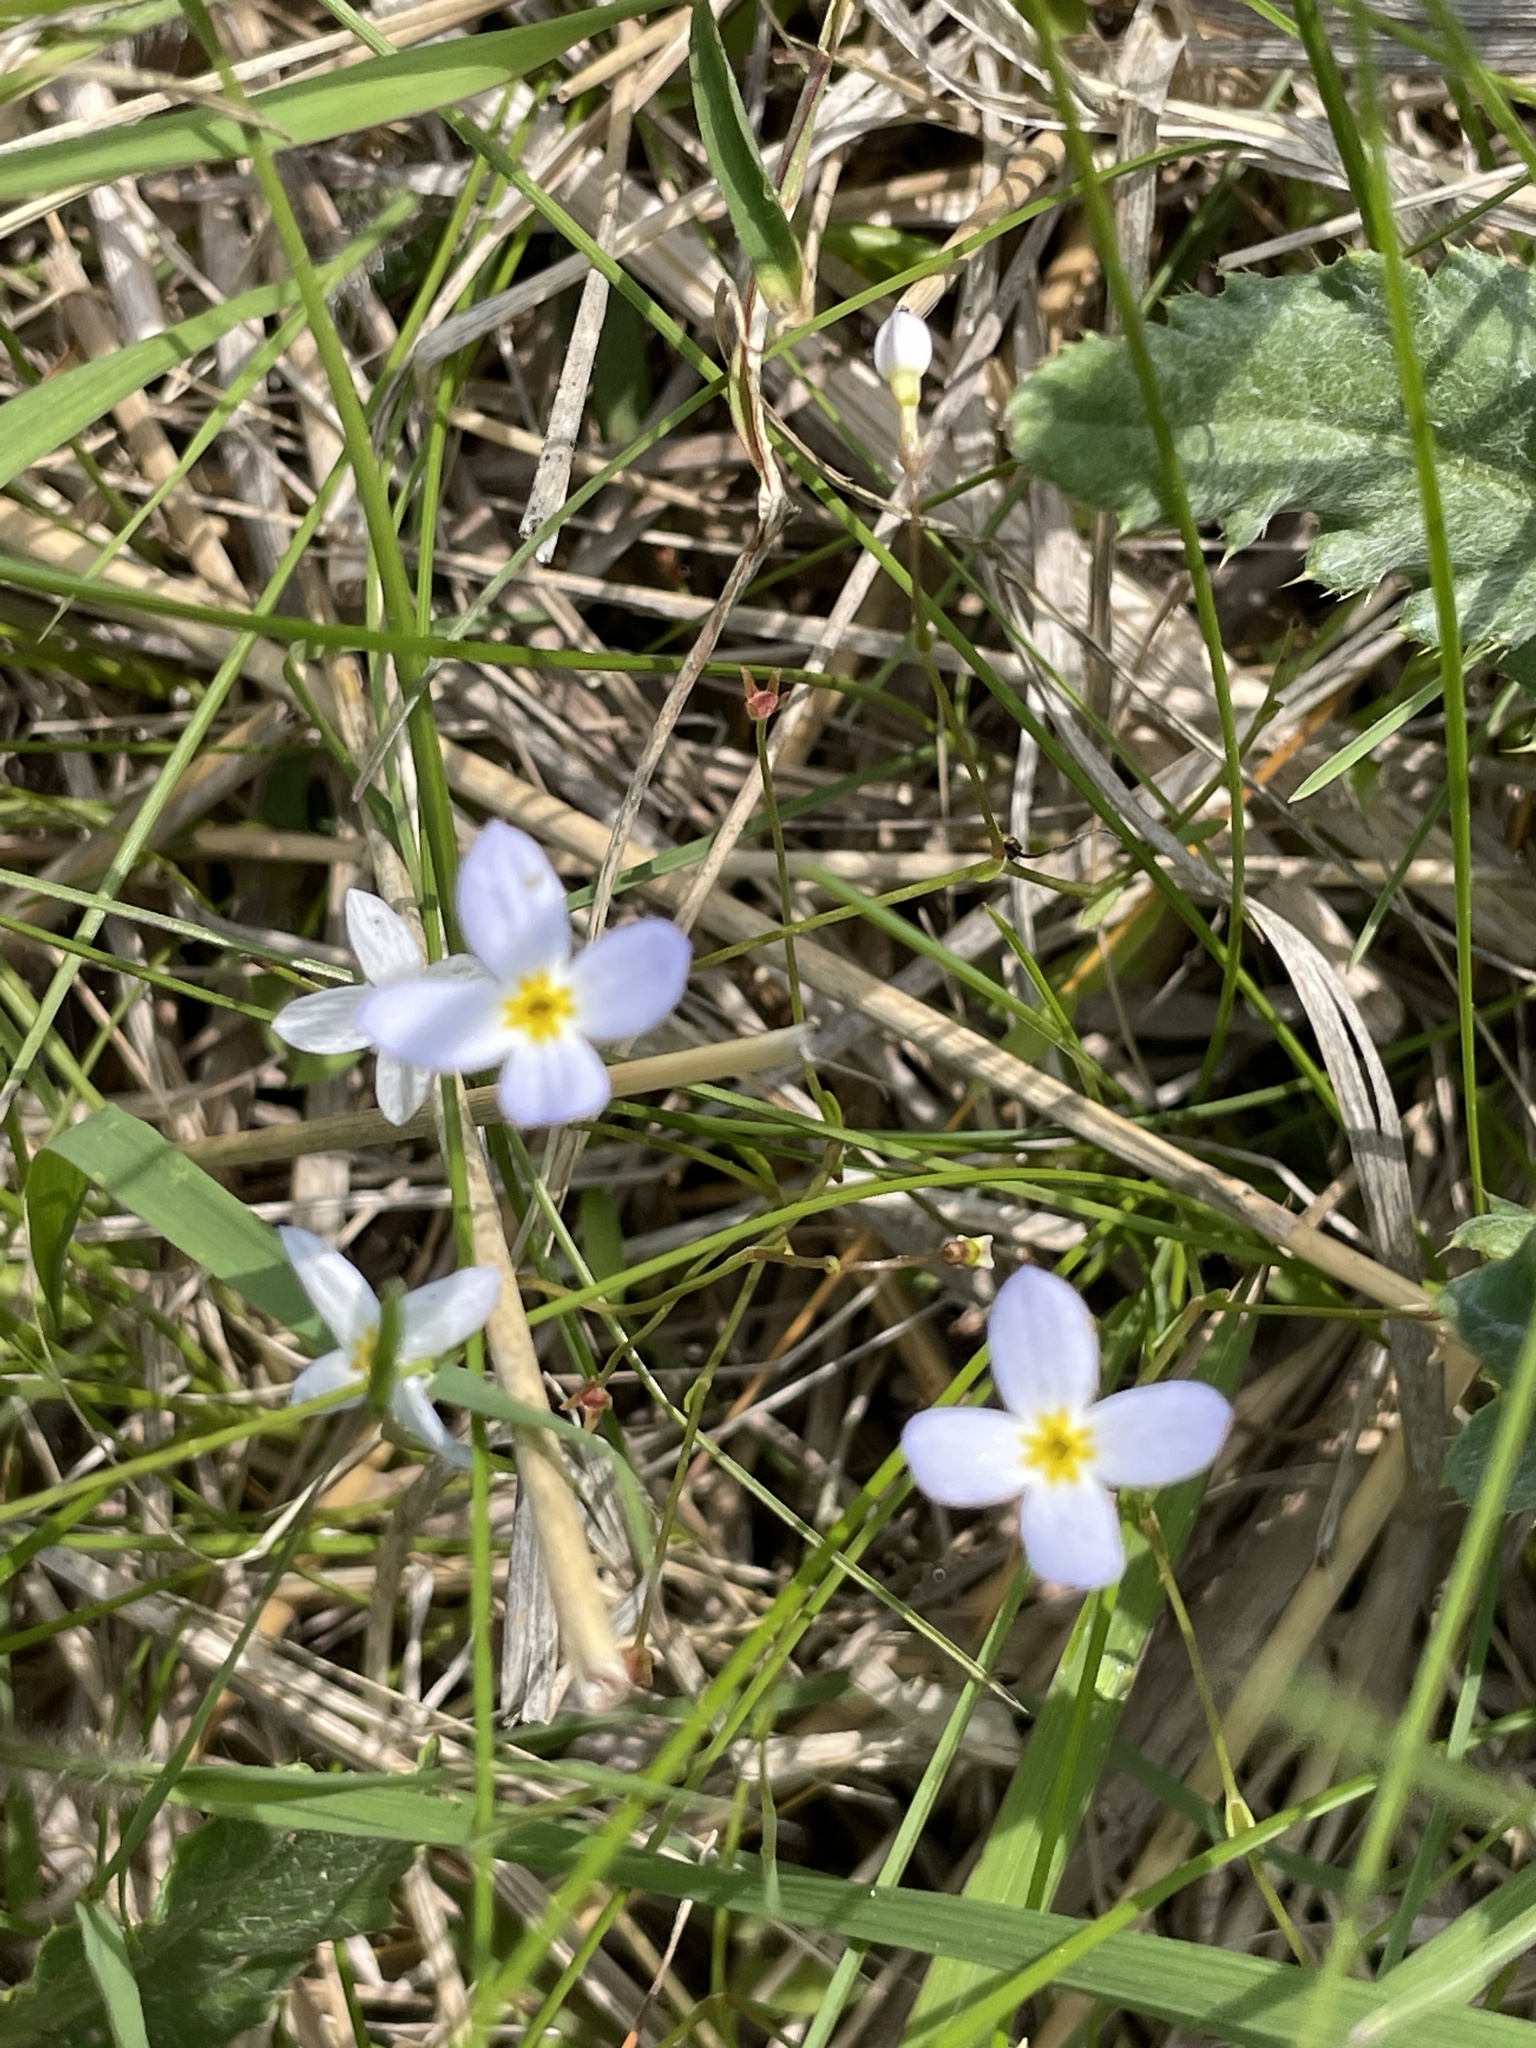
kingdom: Plantae
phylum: Tracheophyta
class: Magnoliopsida
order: Gentianales
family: Rubiaceae
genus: Houstonia
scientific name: Houstonia caerulea
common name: Bluets
